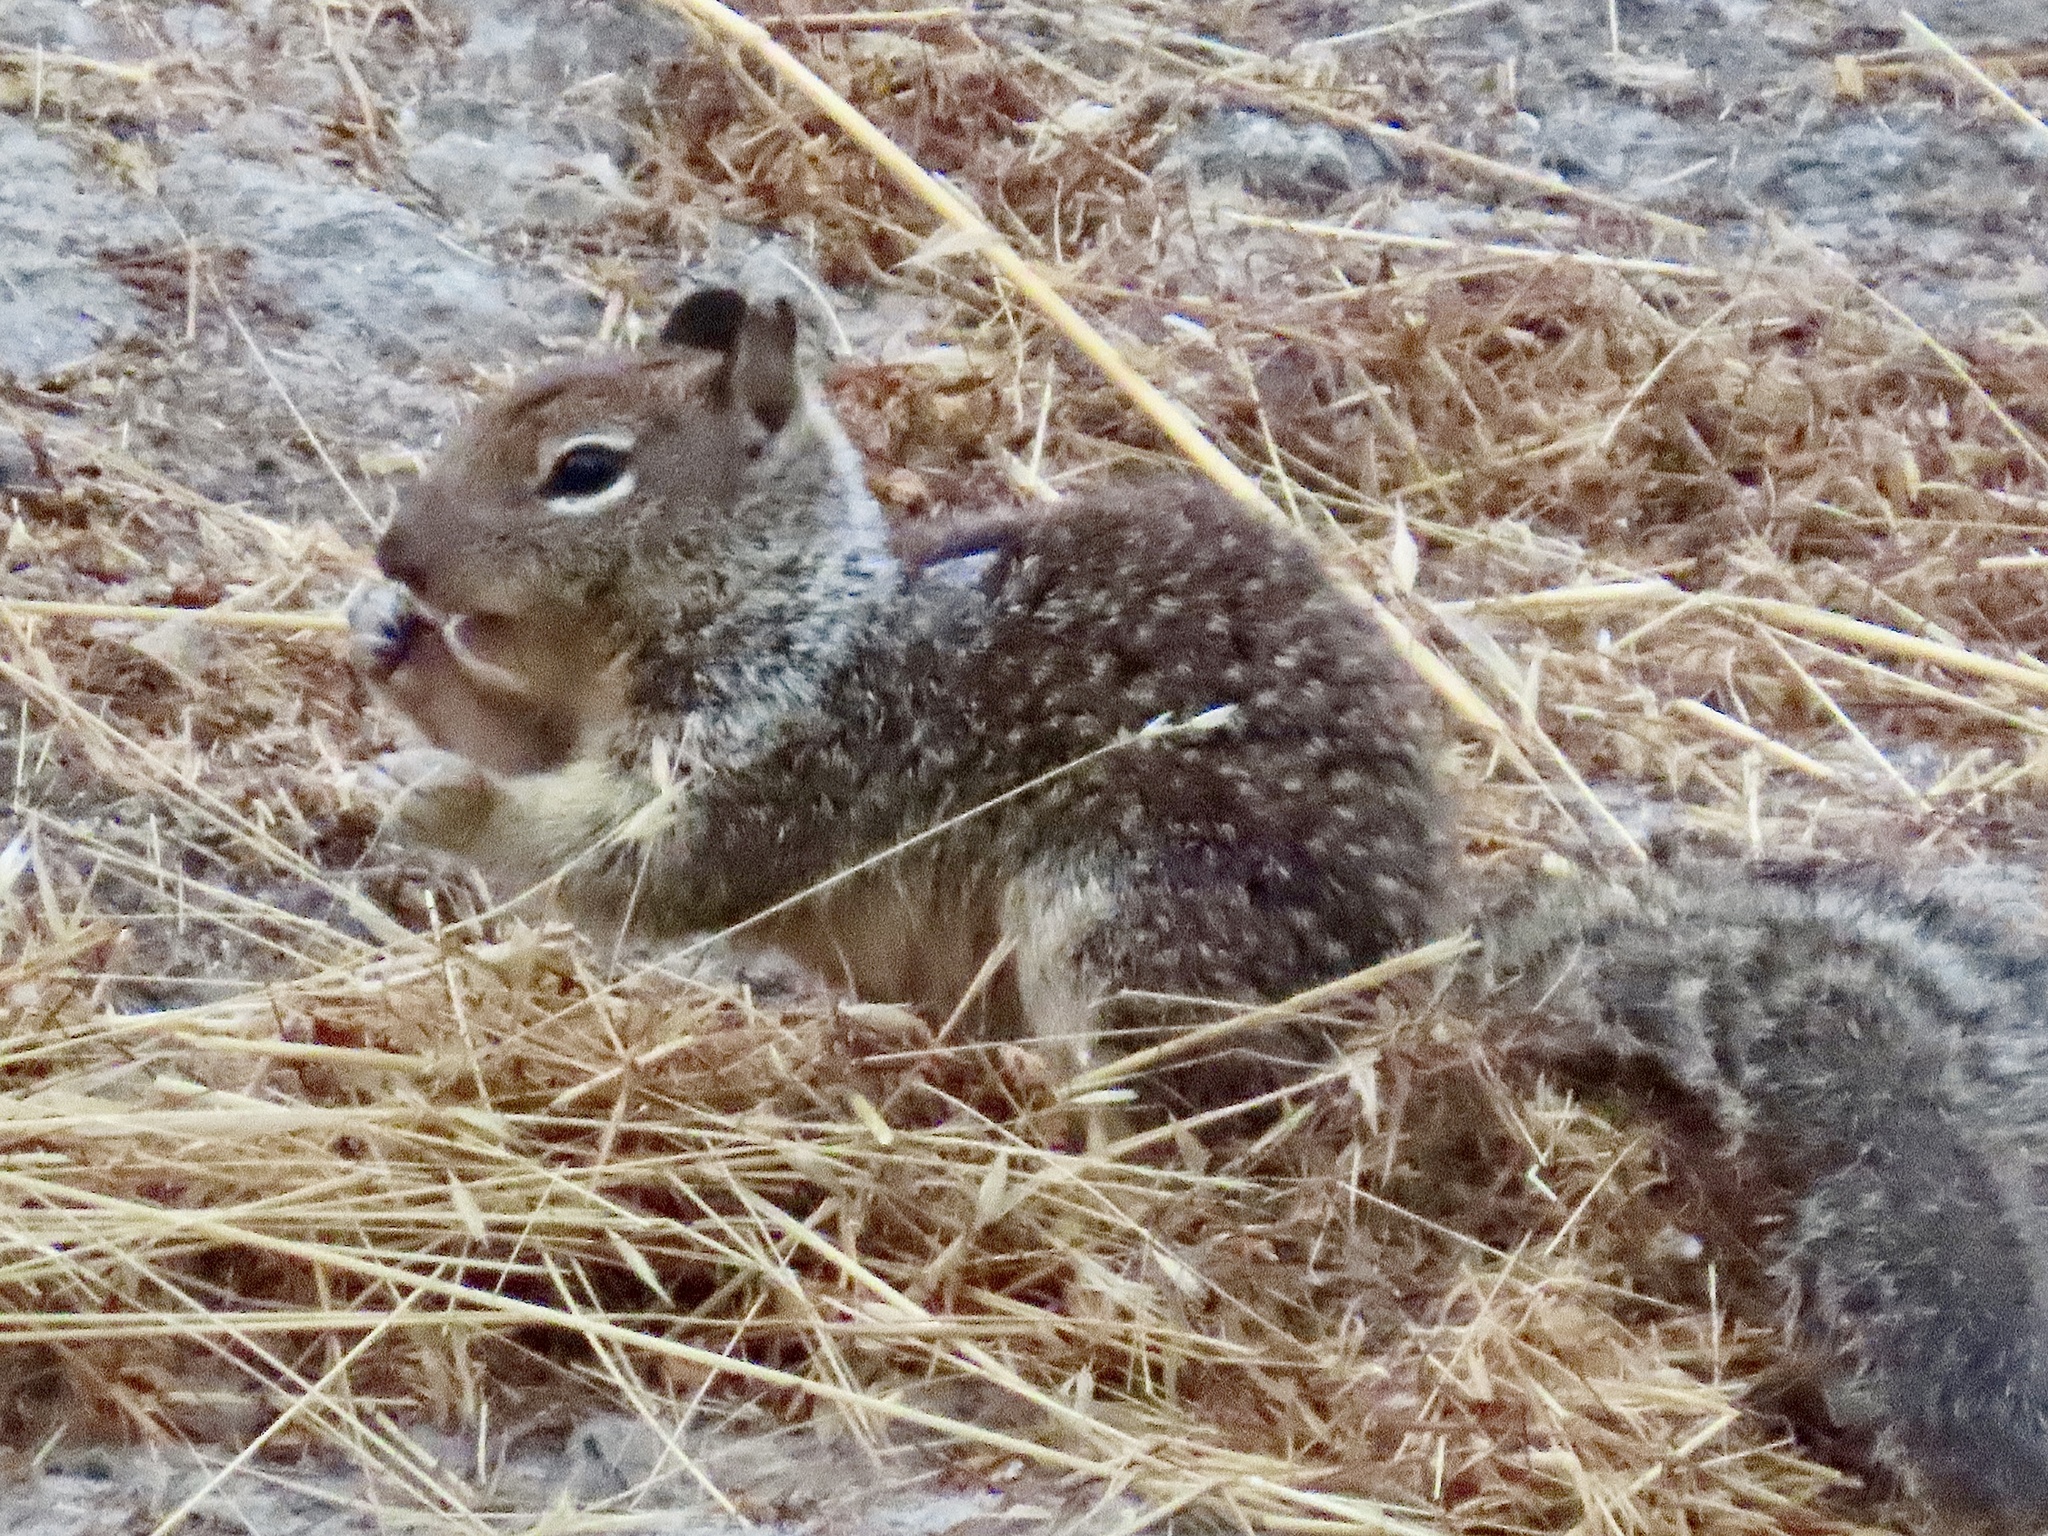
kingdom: Animalia
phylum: Chordata
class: Mammalia
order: Rodentia
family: Sciuridae
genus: Otospermophilus
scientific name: Otospermophilus beecheyi
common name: California ground squirrel
